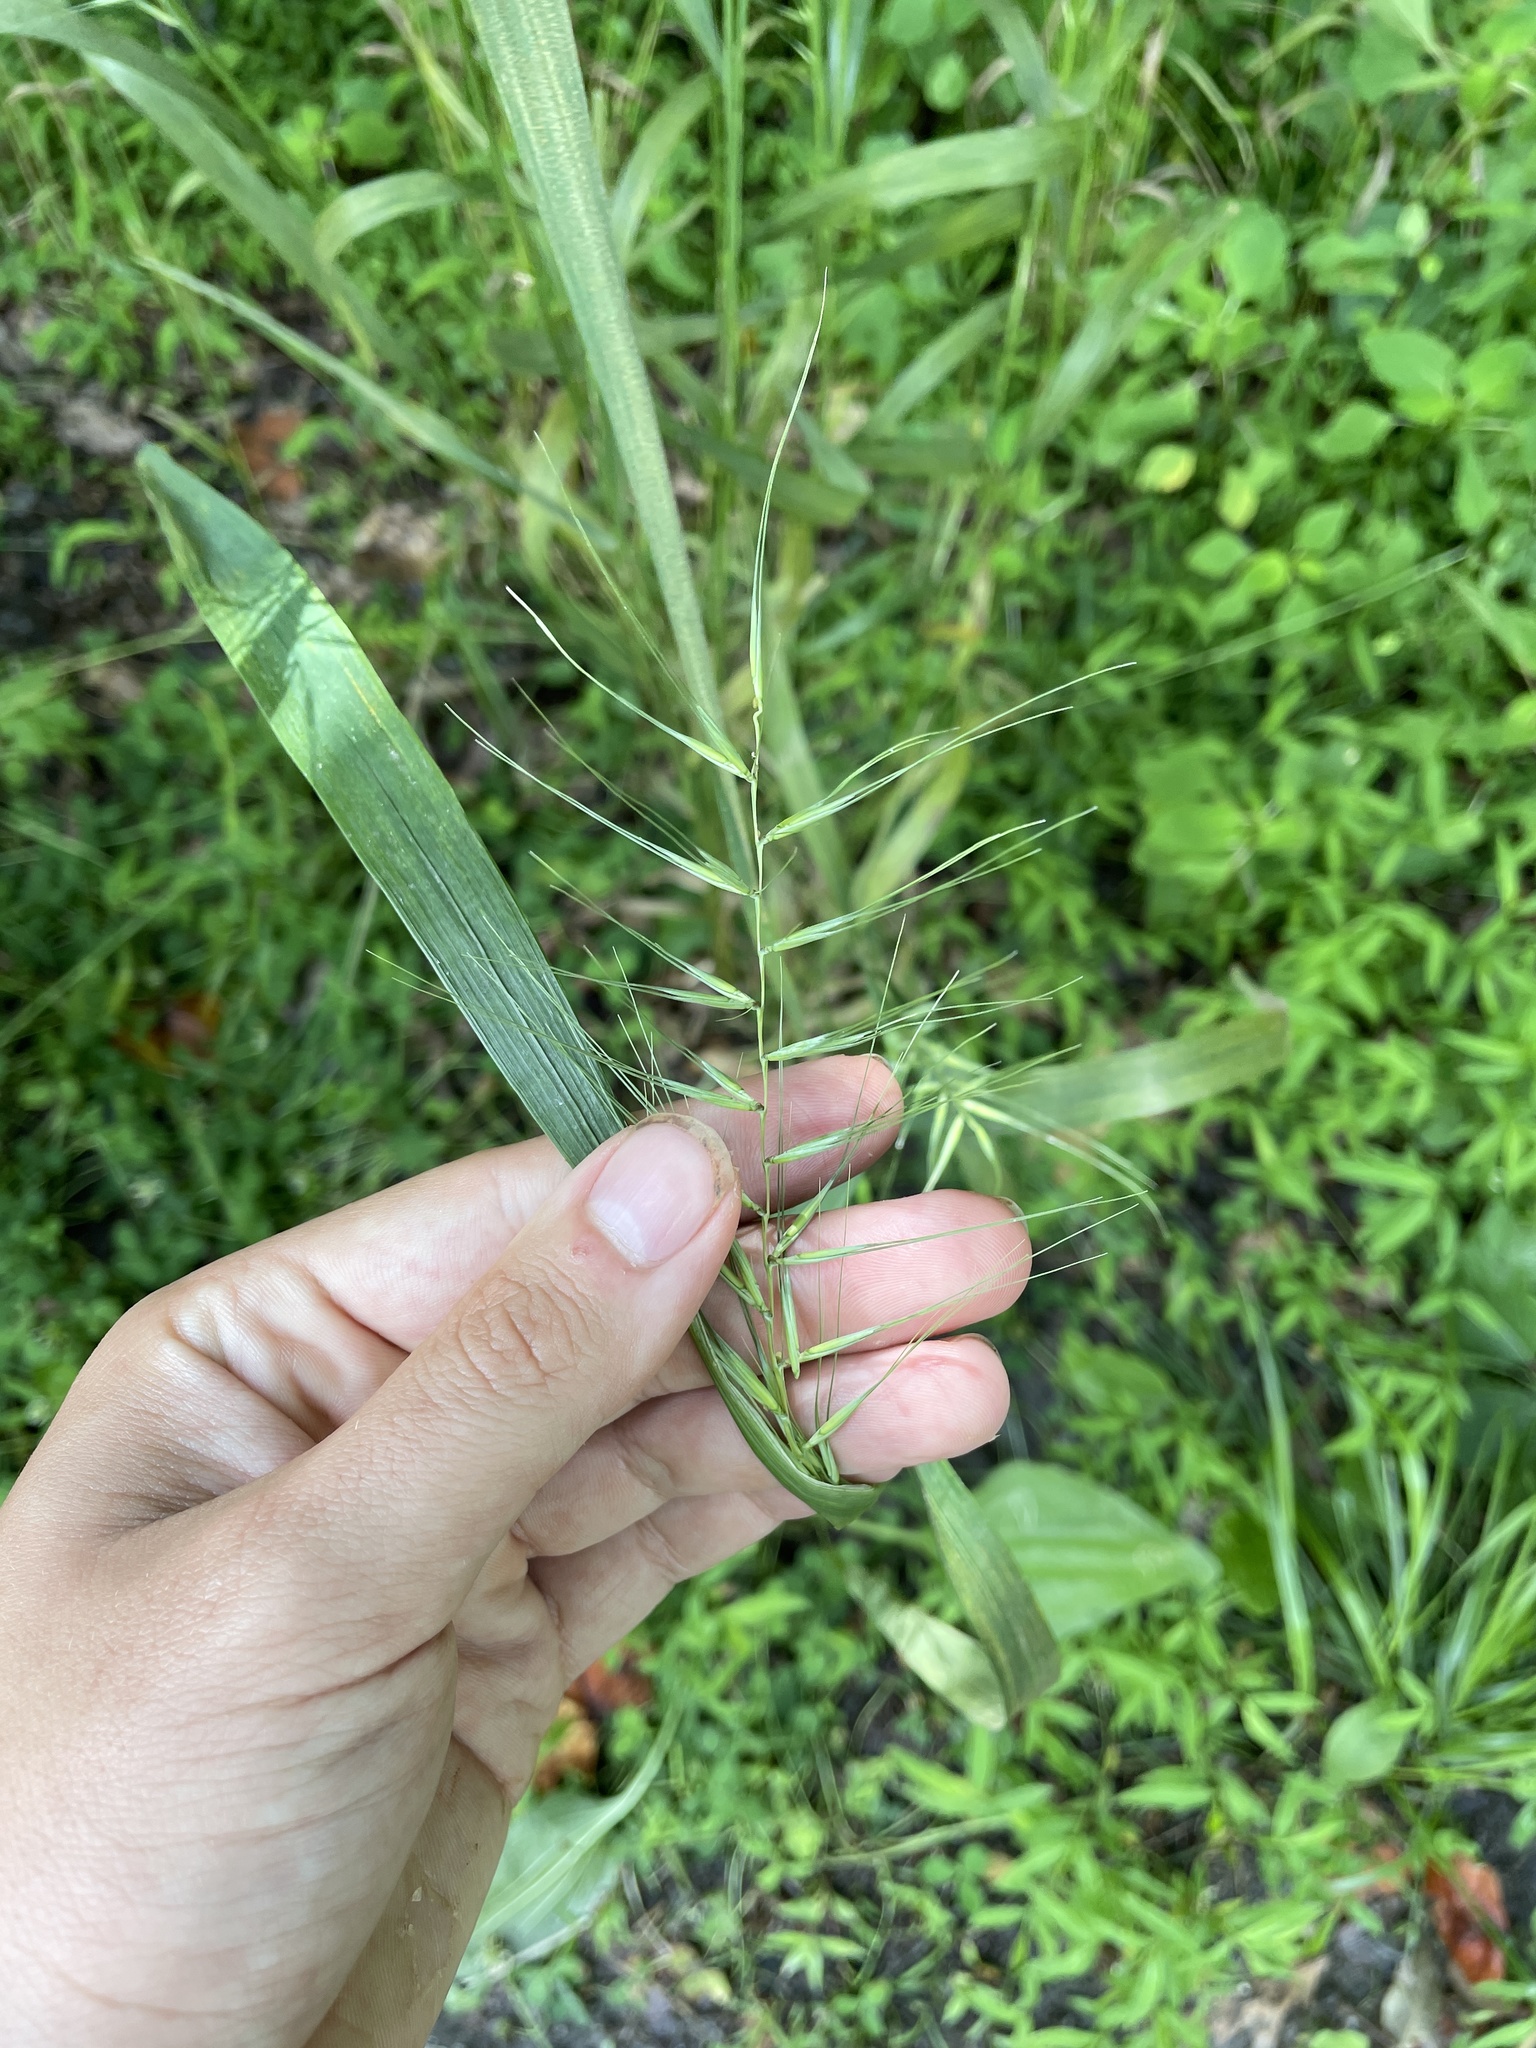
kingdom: Plantae
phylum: Tracheophyta
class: Liliopsida
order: Poales
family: Poaceae
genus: Elymus
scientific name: Elymus hystrix
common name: Bottlebrush grass
